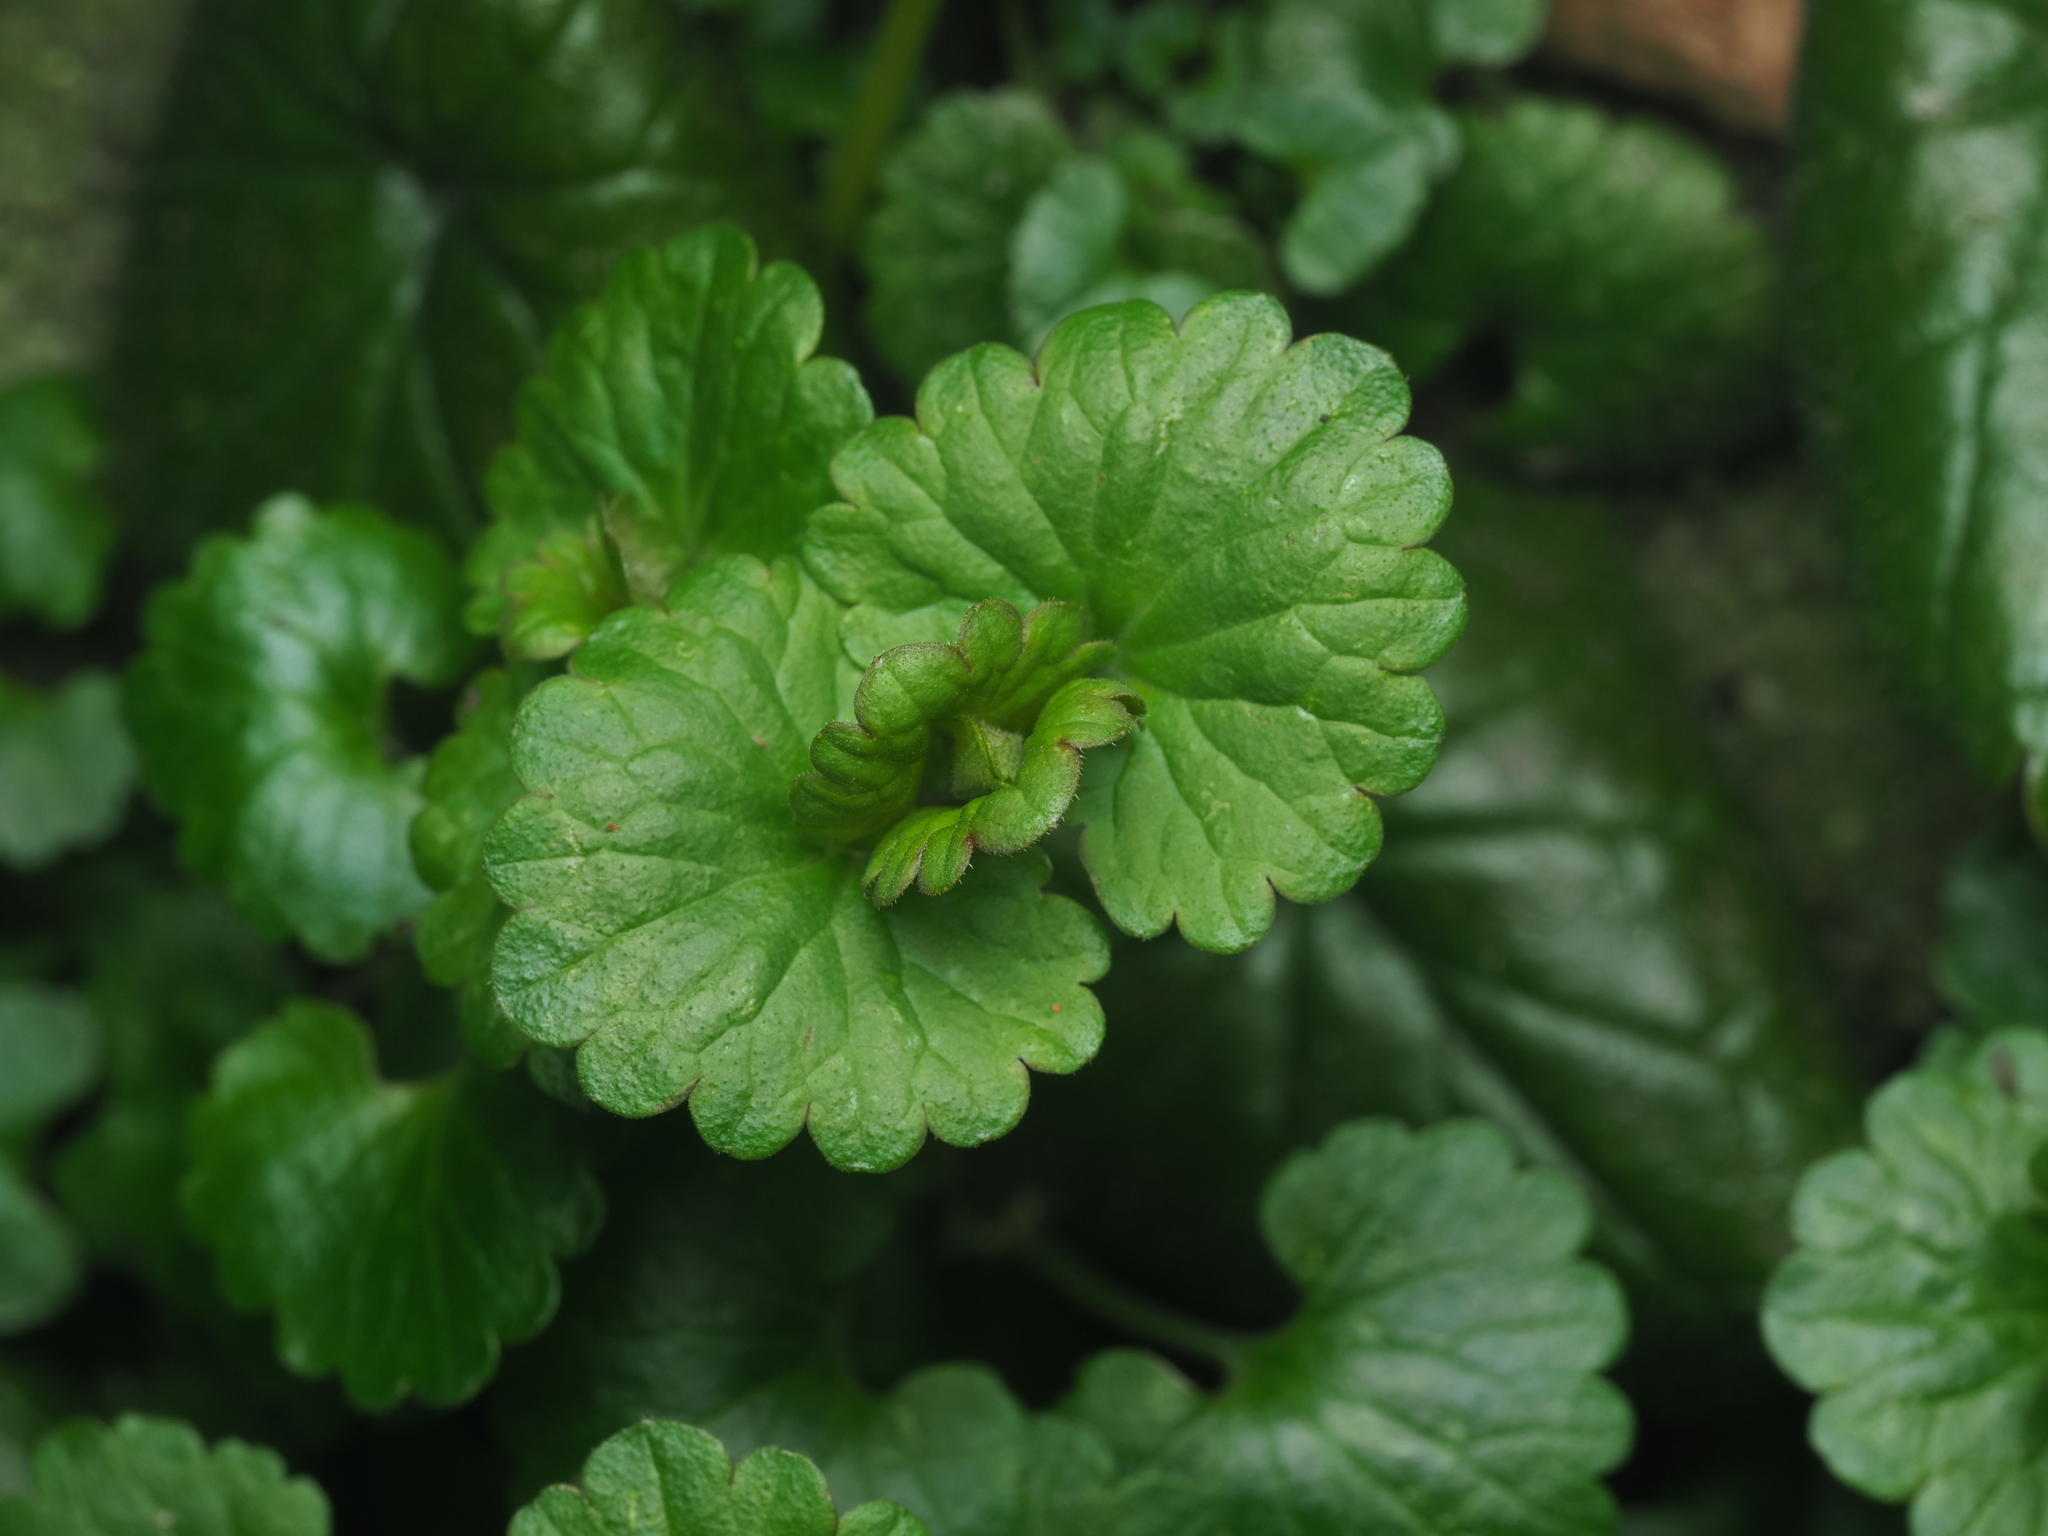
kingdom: Plantae
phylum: Tracheophyta
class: Magnoliopsida
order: Lamiales
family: Lamiaceae
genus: Glechoma
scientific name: Glechoma hederacea
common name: Ground ivy
